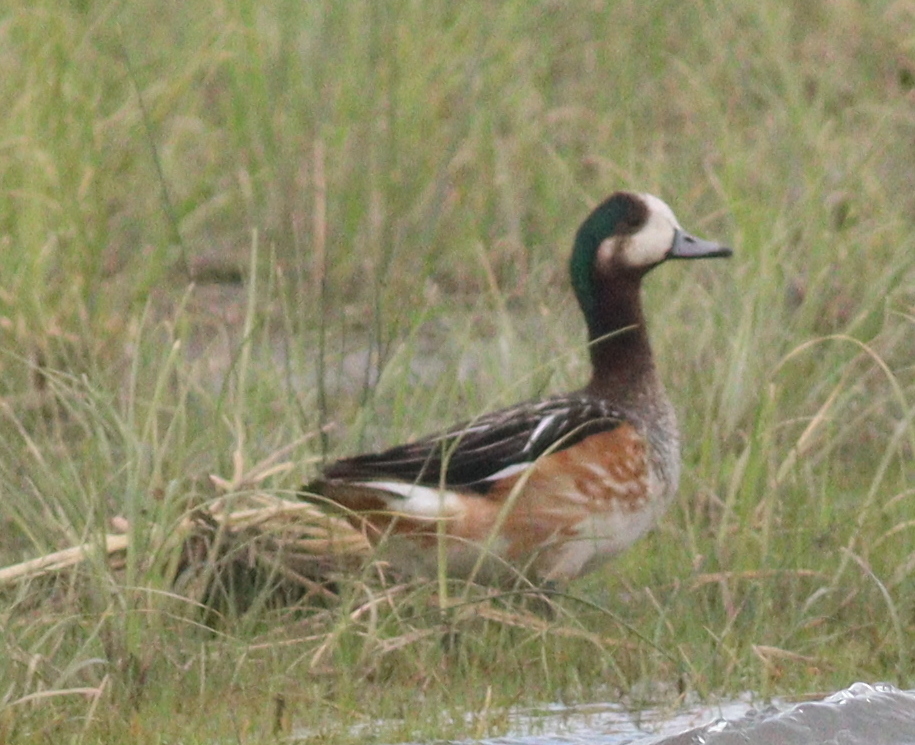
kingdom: Animalia
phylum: Chordata
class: Aves
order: Anseriformes
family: Anatidae
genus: Mareca
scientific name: Mareca sibilatrix
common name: Chiloe wigeon
